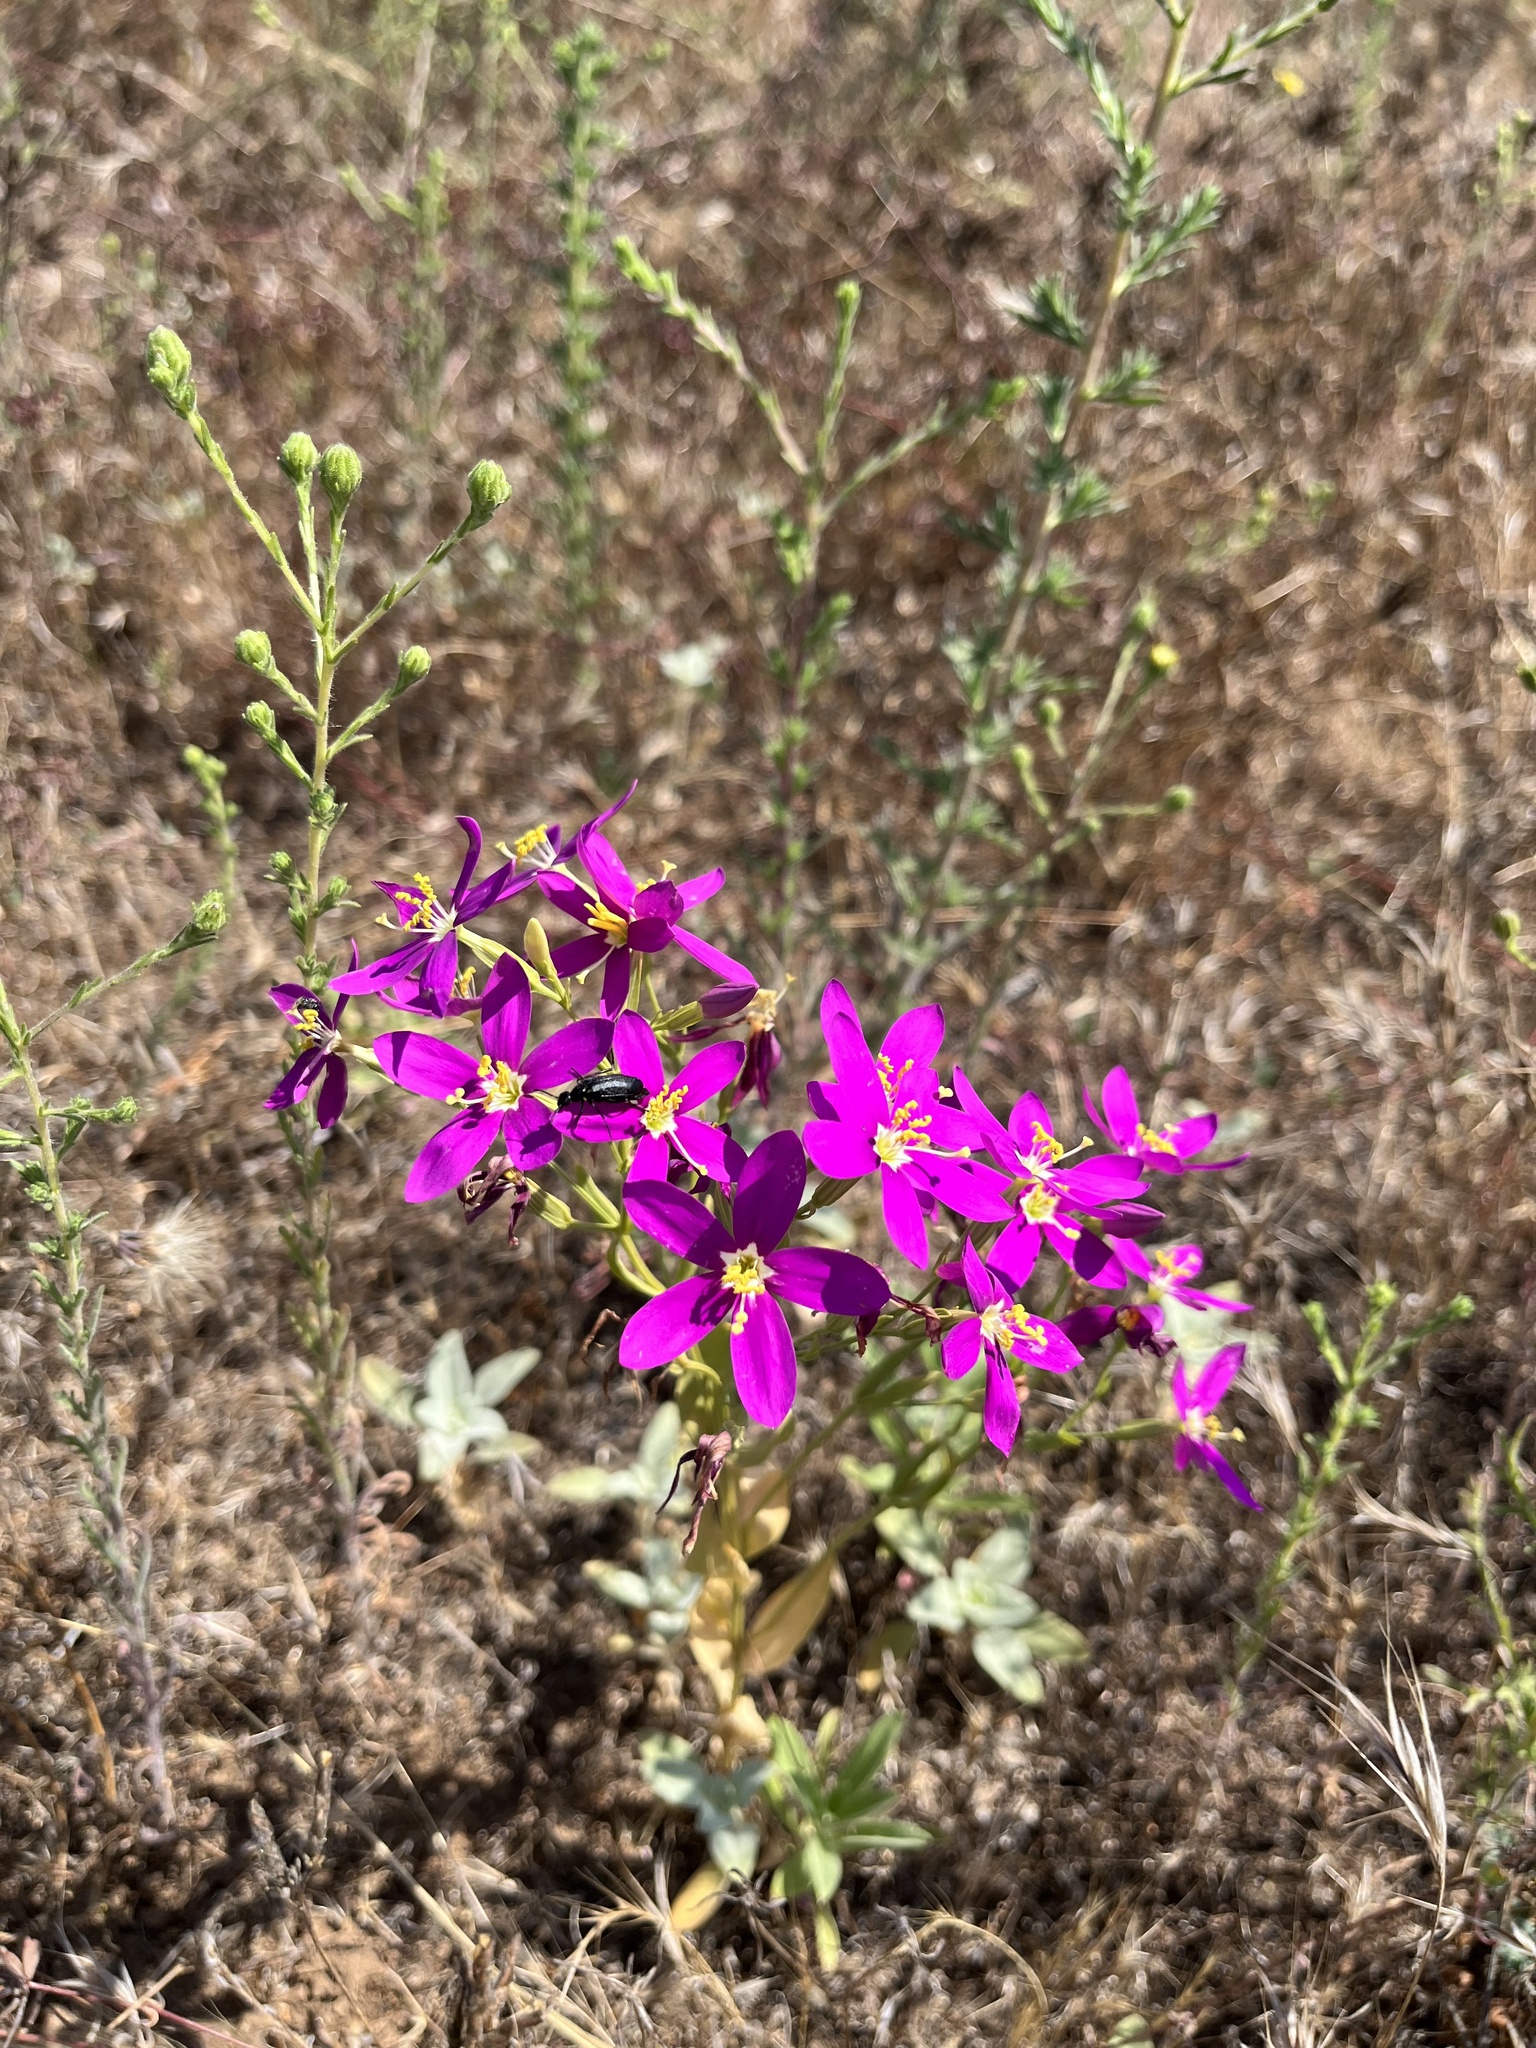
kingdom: Plantae
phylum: Tracheophyta
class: Magnoliopsida
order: Gentianales
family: Gentianaceae
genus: Zeltnera
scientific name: Zeltnera venusta
